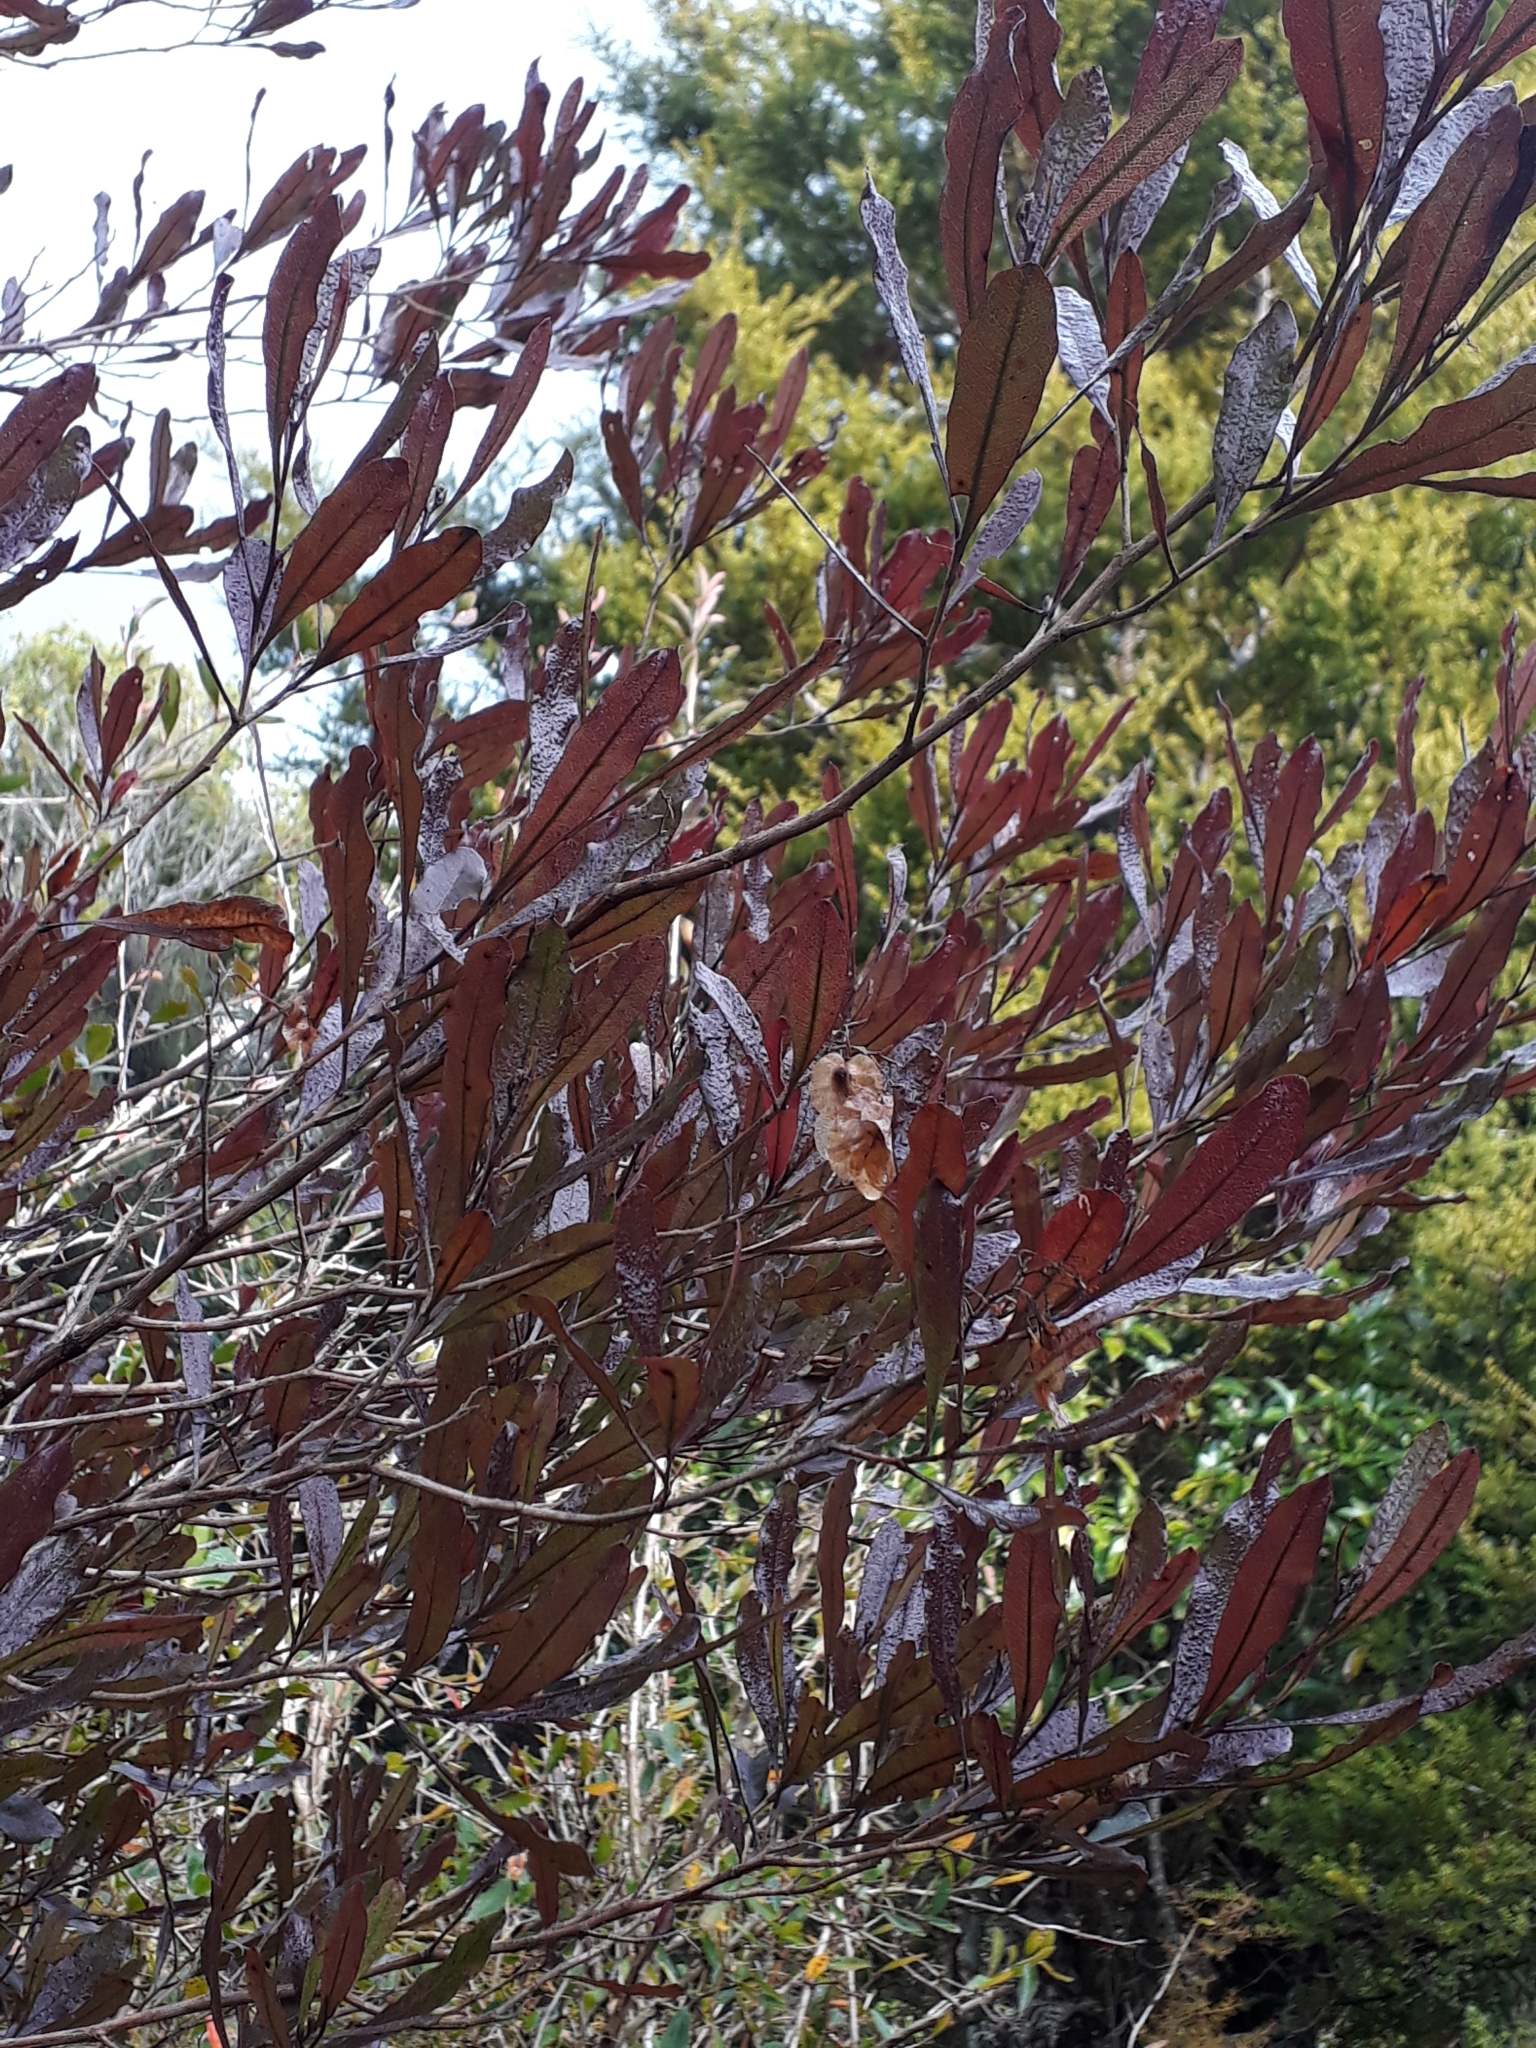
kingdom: Plantae
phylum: Tracheophyta
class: Magnoliopsida
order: Sapindales
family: Sapindaceae
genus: Dodonaea
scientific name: Dodonaea viscosa
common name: Hopbush
